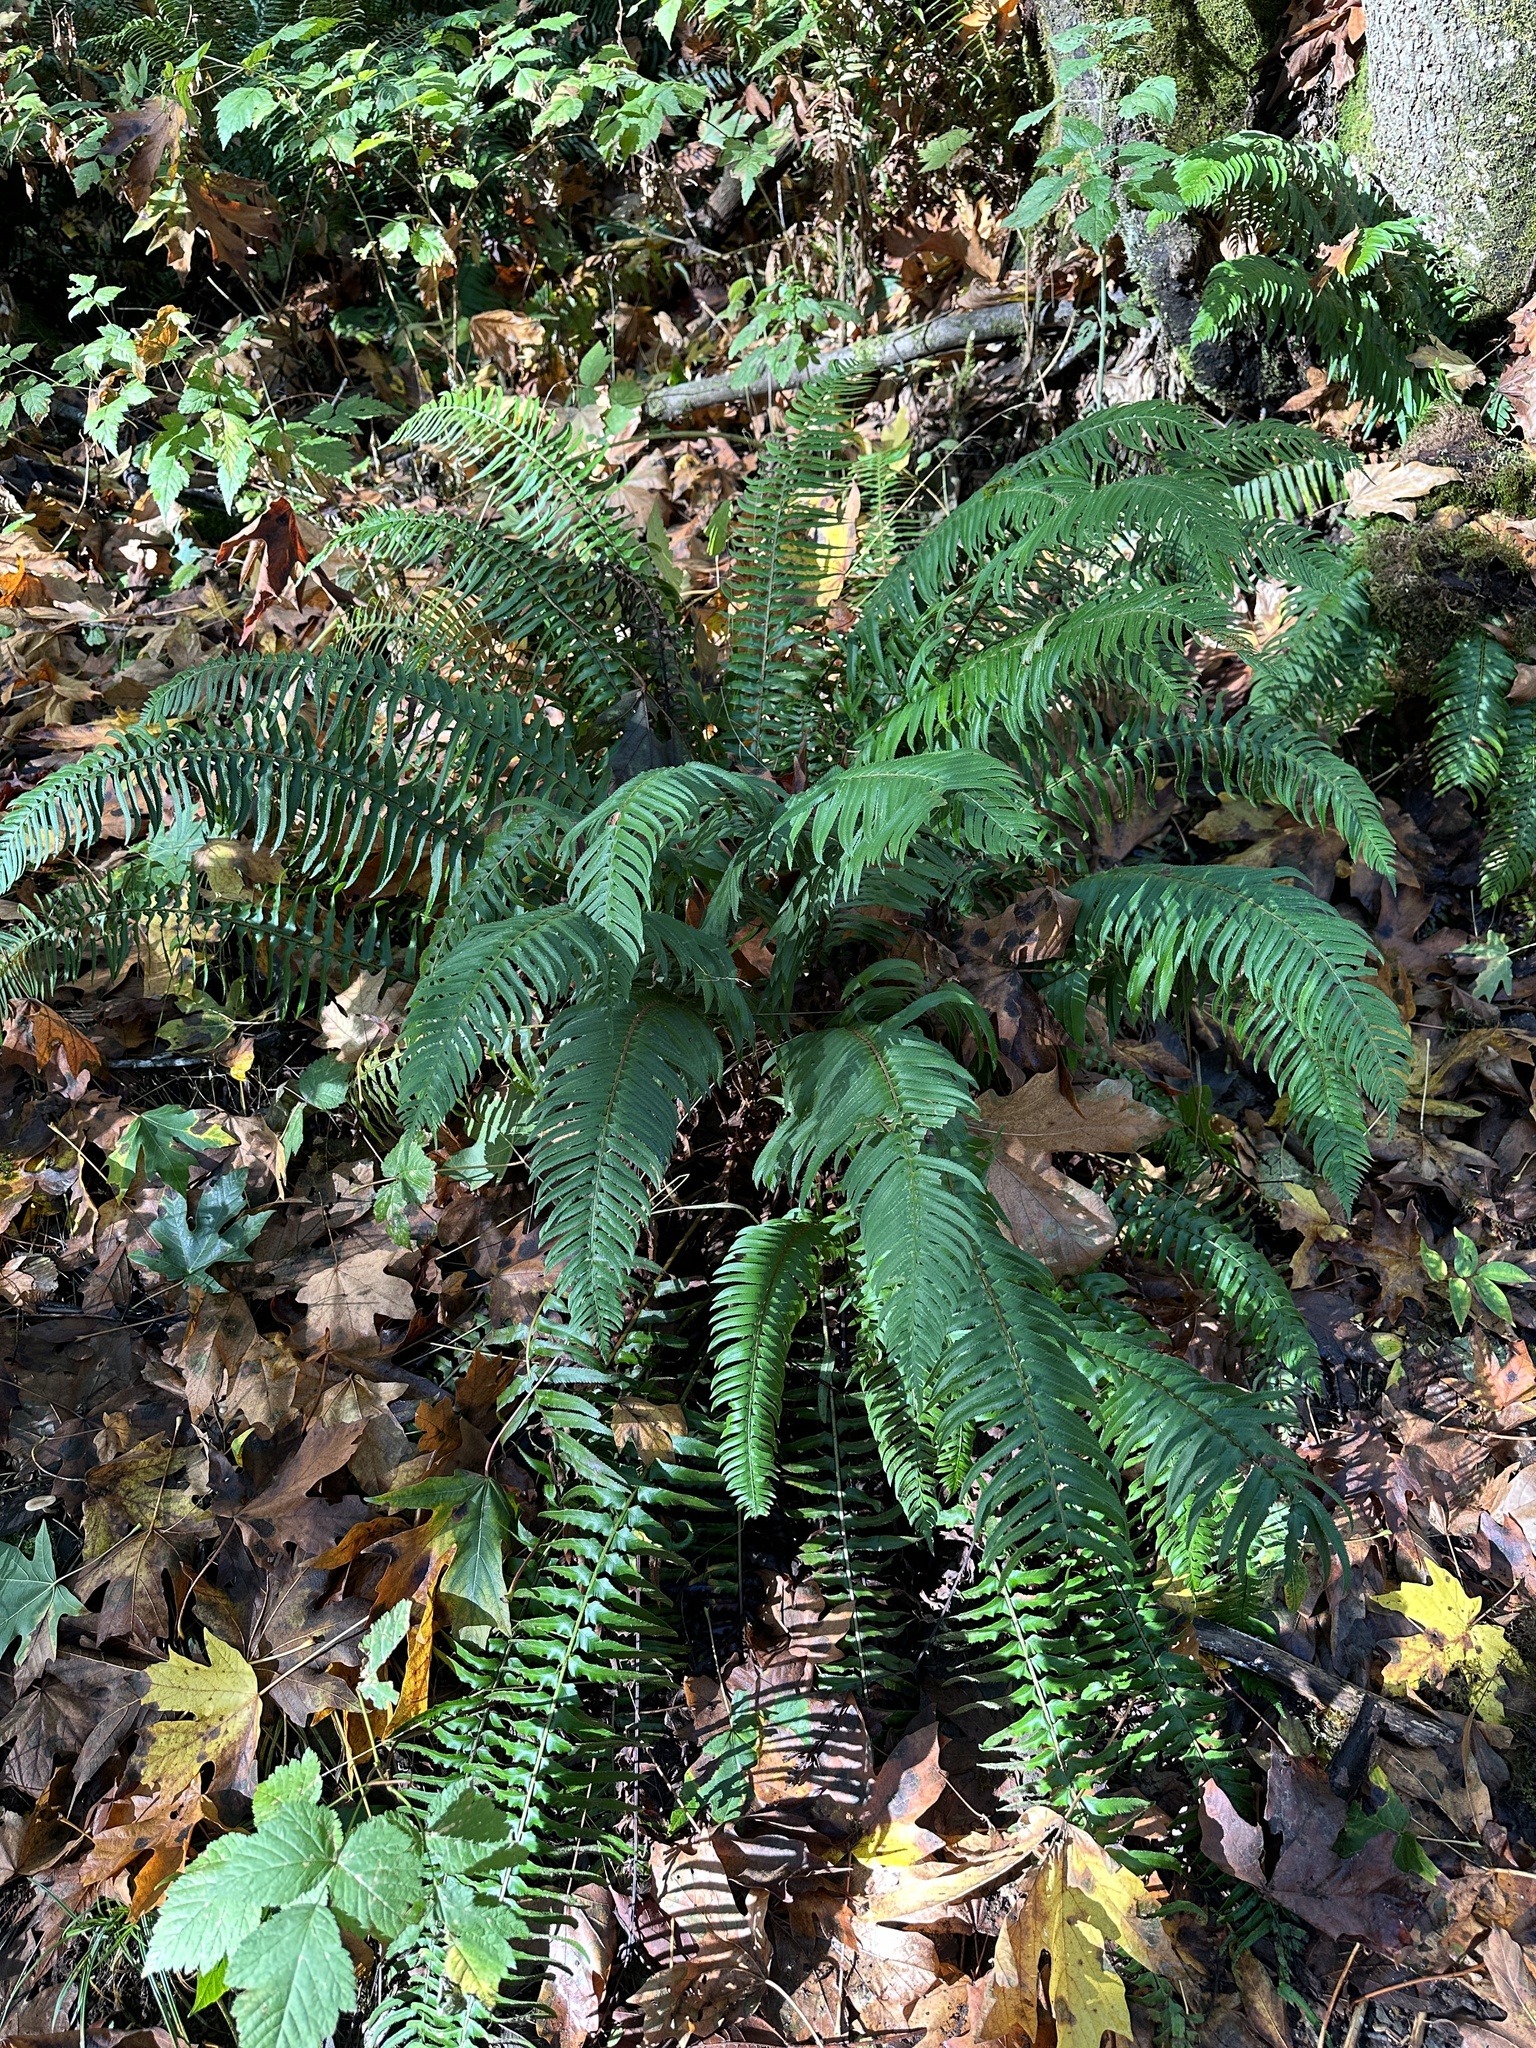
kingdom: Plantae
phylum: Tracheophyta
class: Polypodiopsida
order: Polypodiales
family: Dryopteridaceae
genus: Polystichum
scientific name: Polystichum munitum
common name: Western sword-fern
